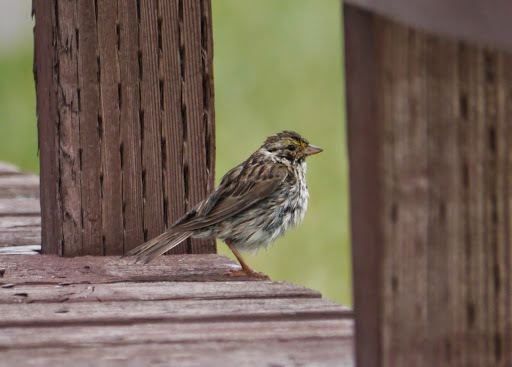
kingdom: Animalia
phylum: Chordata
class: Aves
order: Passeriformes
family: Passerellidae
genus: Passerculus
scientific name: Passerculus sandwichensis
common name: Savannah sparrow
